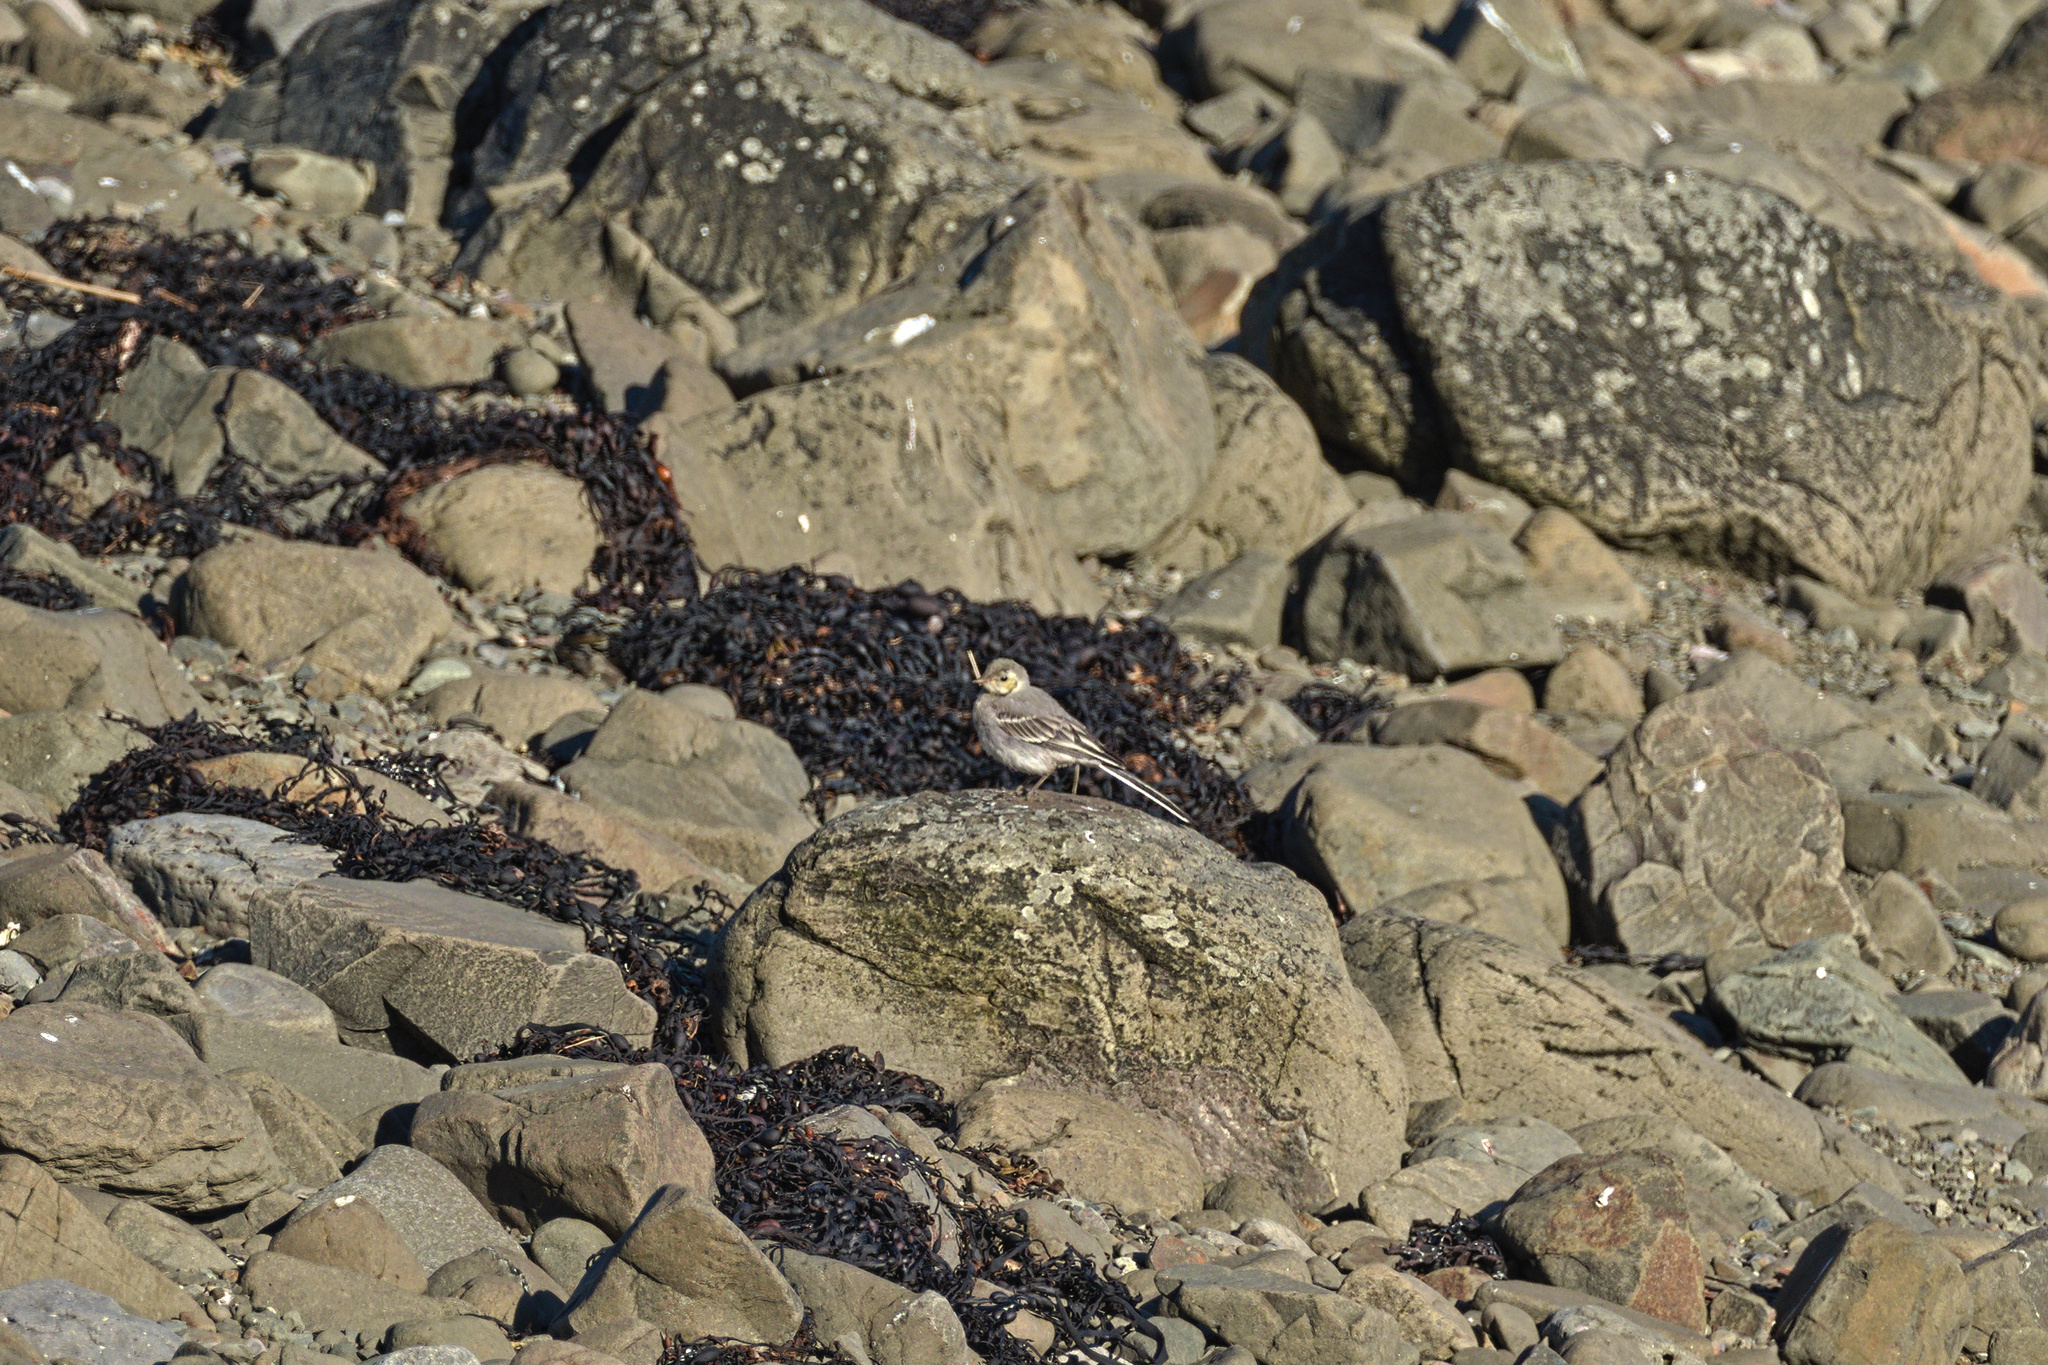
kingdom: Animalia
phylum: Chordata
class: Aves
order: Passeriformes
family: Motacillidae
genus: Motacilla
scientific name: Motacilla alba
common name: White wagtail
